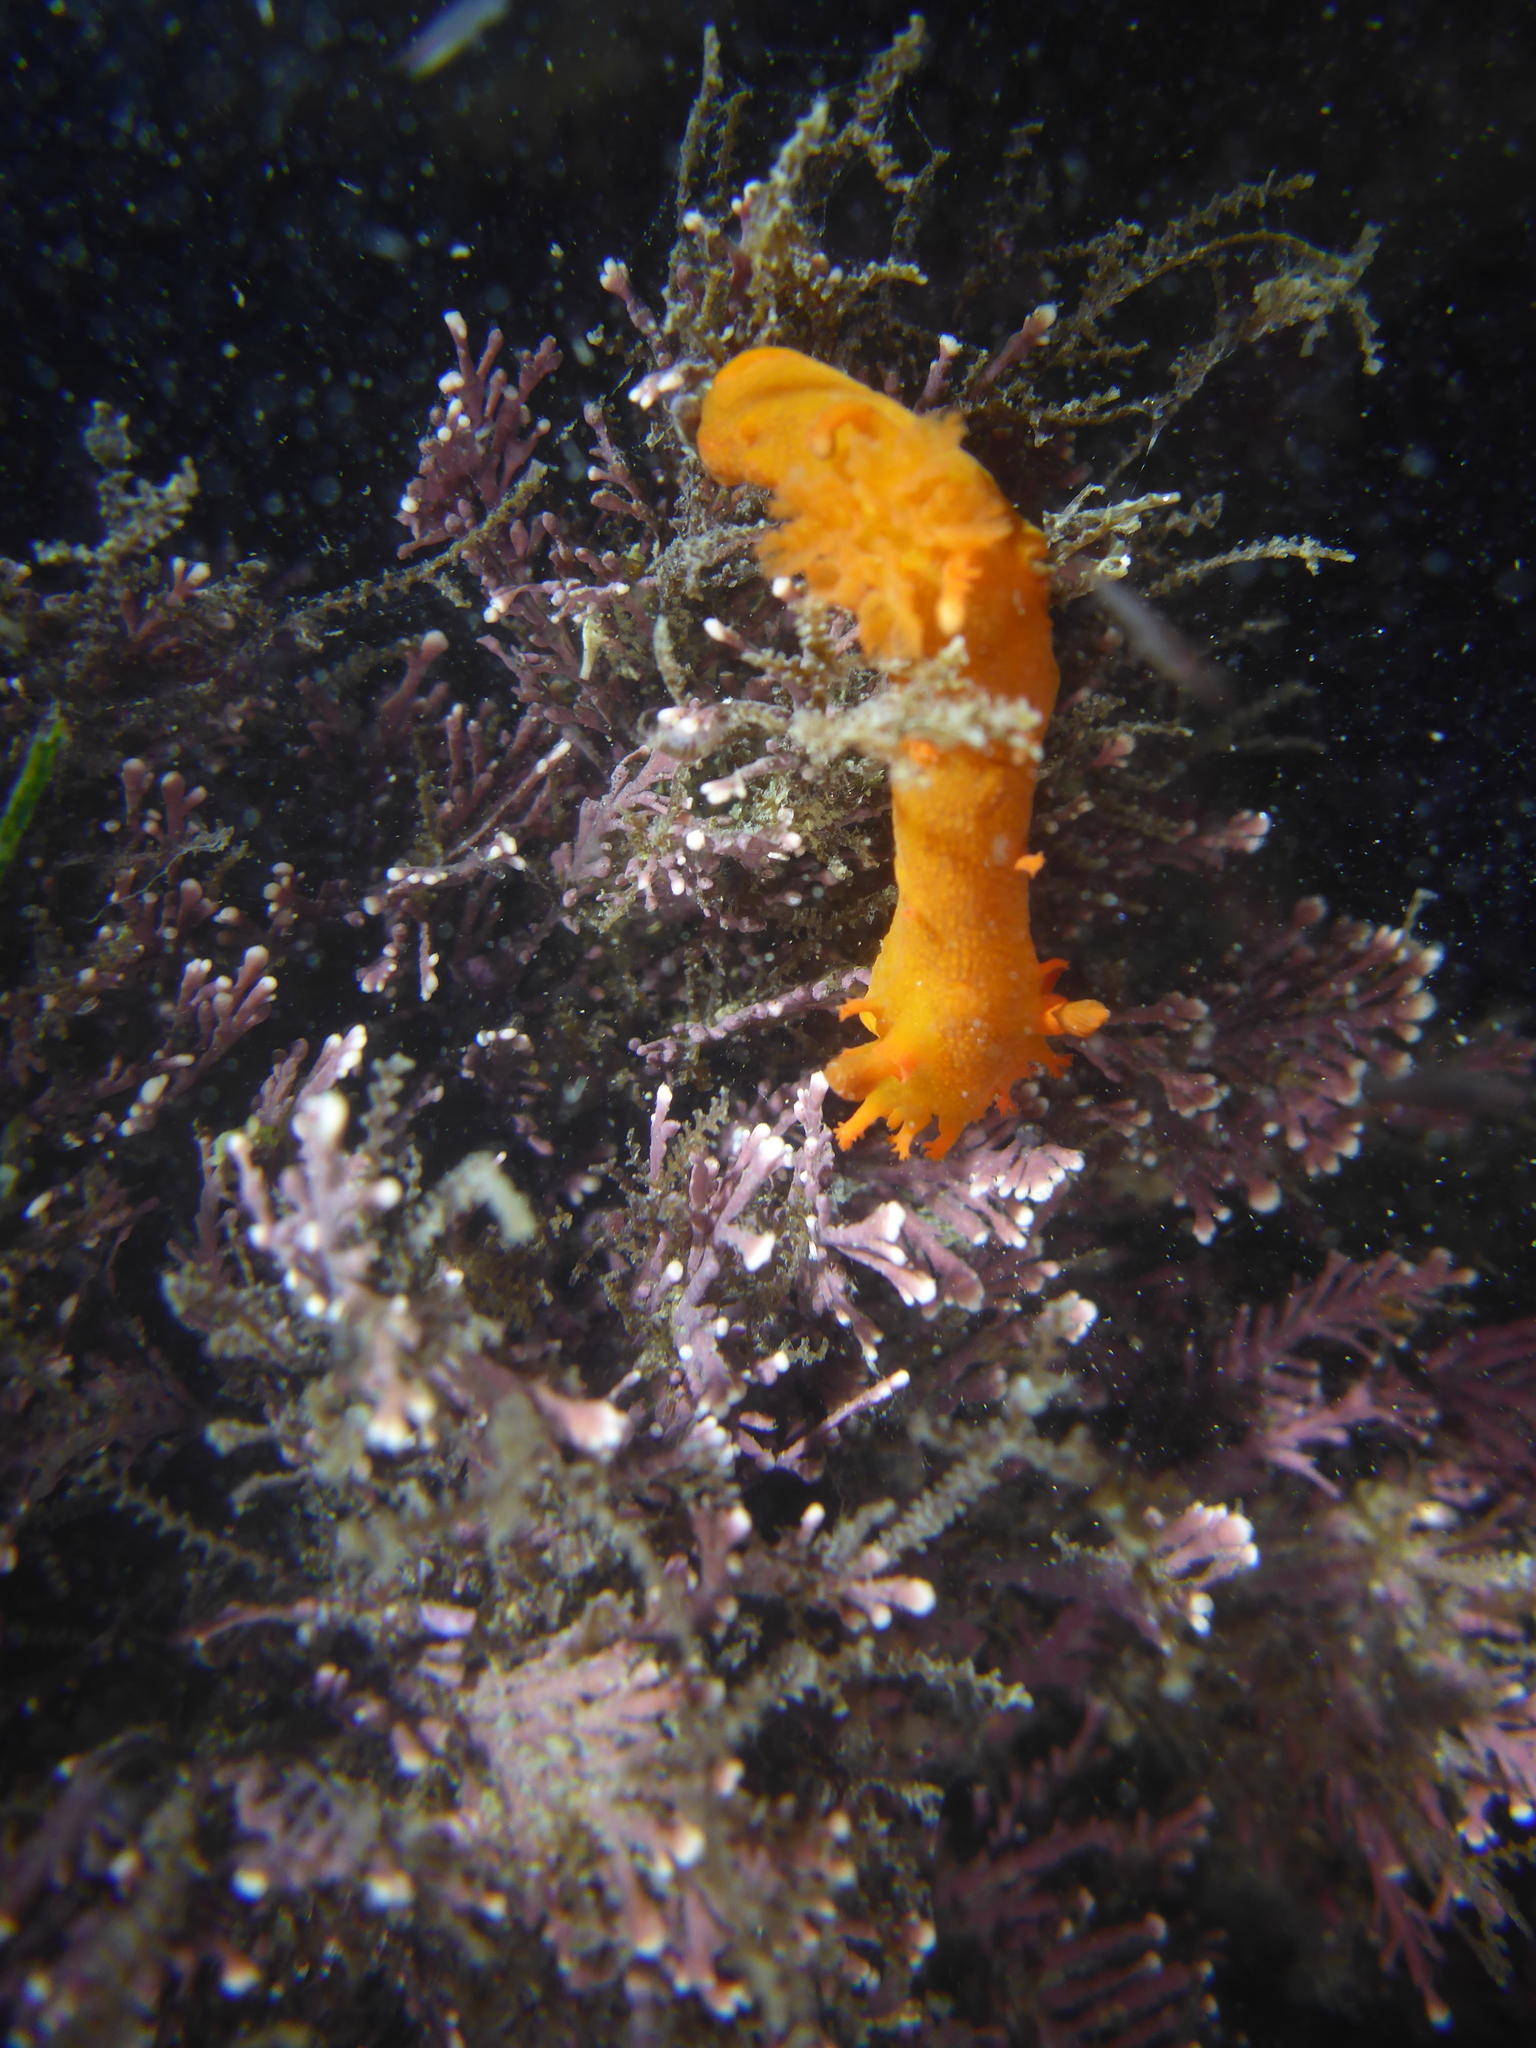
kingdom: Animalia
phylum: Mollusca
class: Gastropoda
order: Nudibranchia
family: Polyceridae
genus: Triopha
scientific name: Triopha maculata
